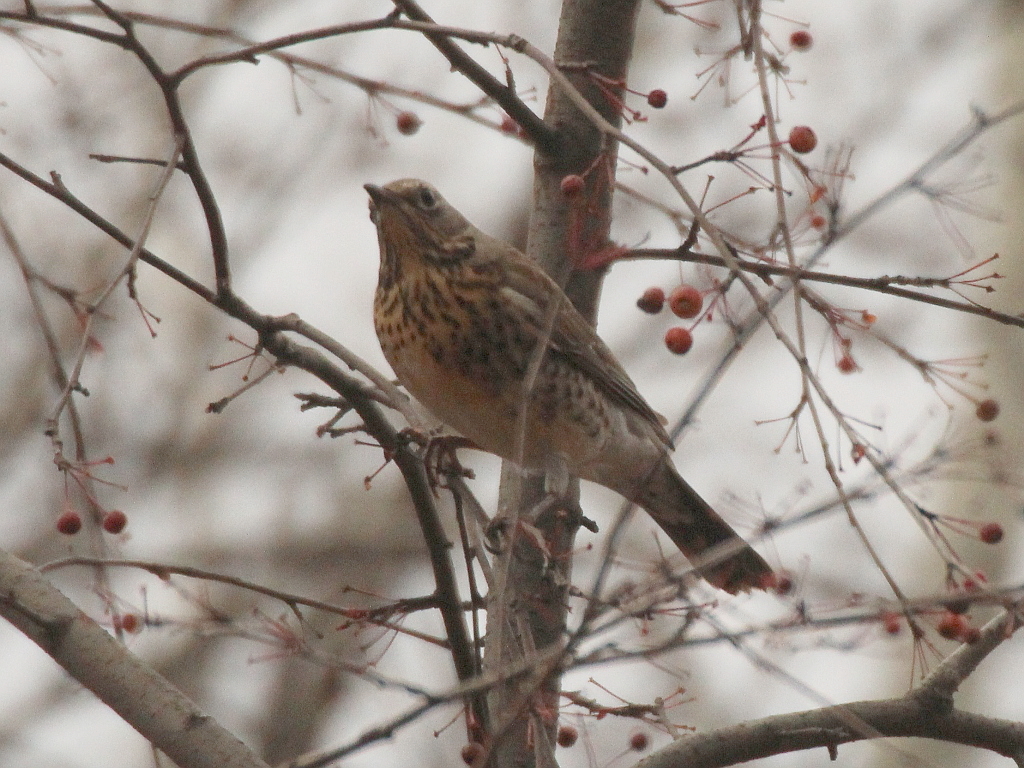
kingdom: Animalia
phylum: Chordata
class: Aves
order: Passeriformes
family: Turdidae
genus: Turdus
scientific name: Turdus pilaris
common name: Fieldfare
